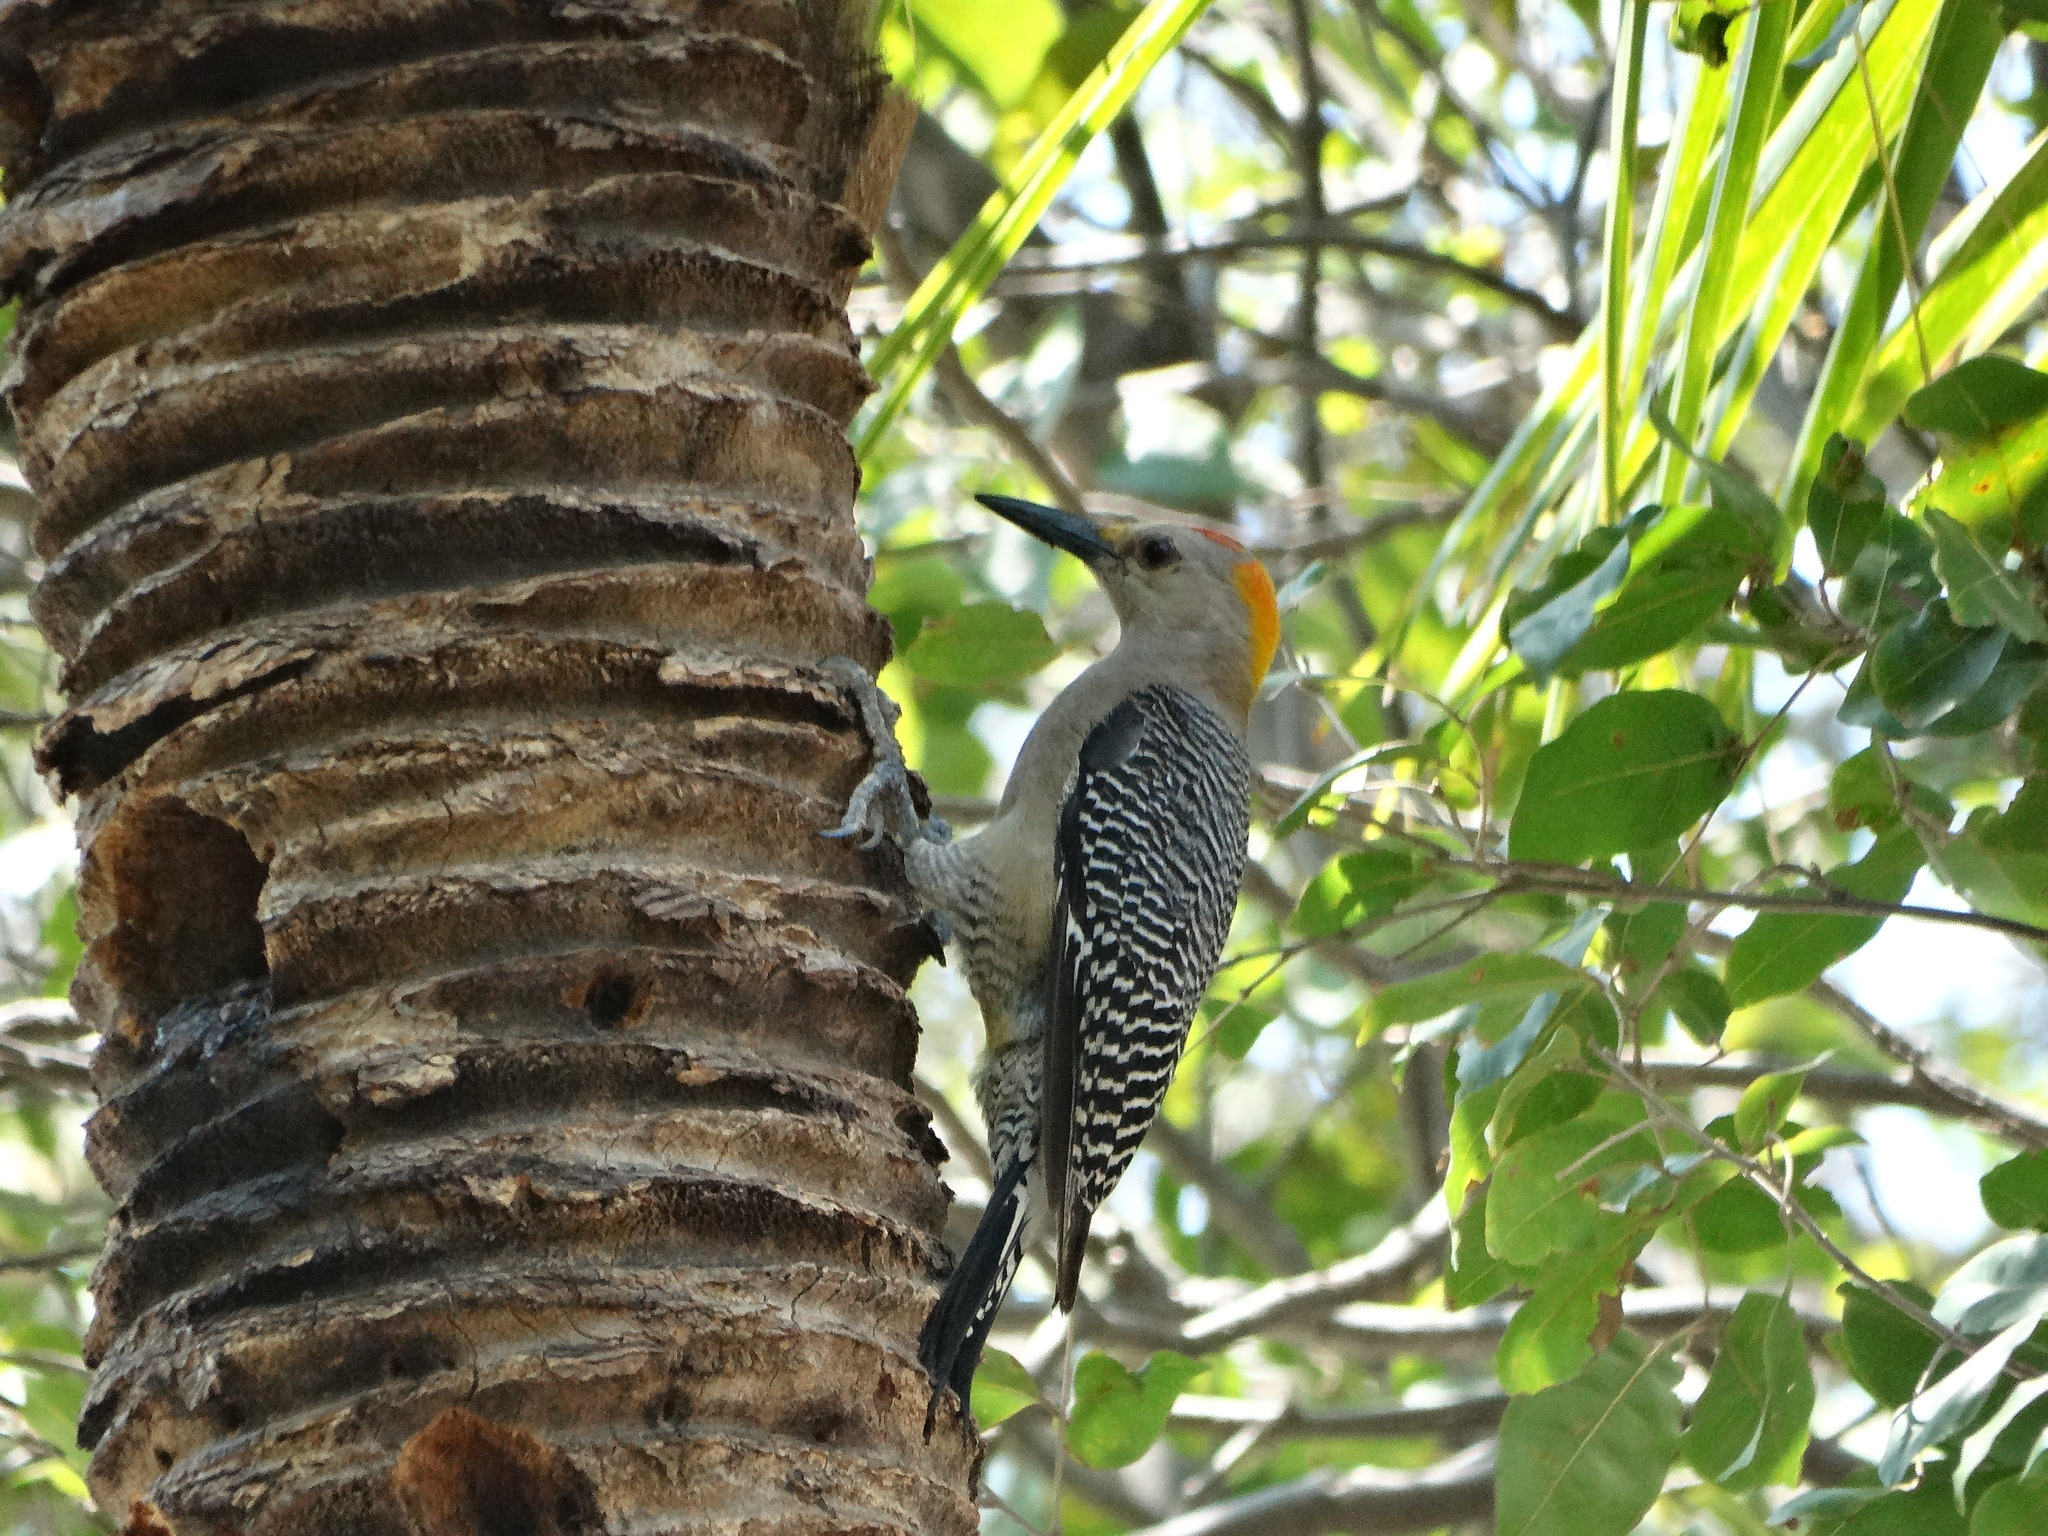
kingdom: Animalia
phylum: Chordata
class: Aves
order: Piciformes
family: Picidae
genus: Melanerpes
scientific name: Melanerpes aurifrons
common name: Golden-fronted woodpecker
